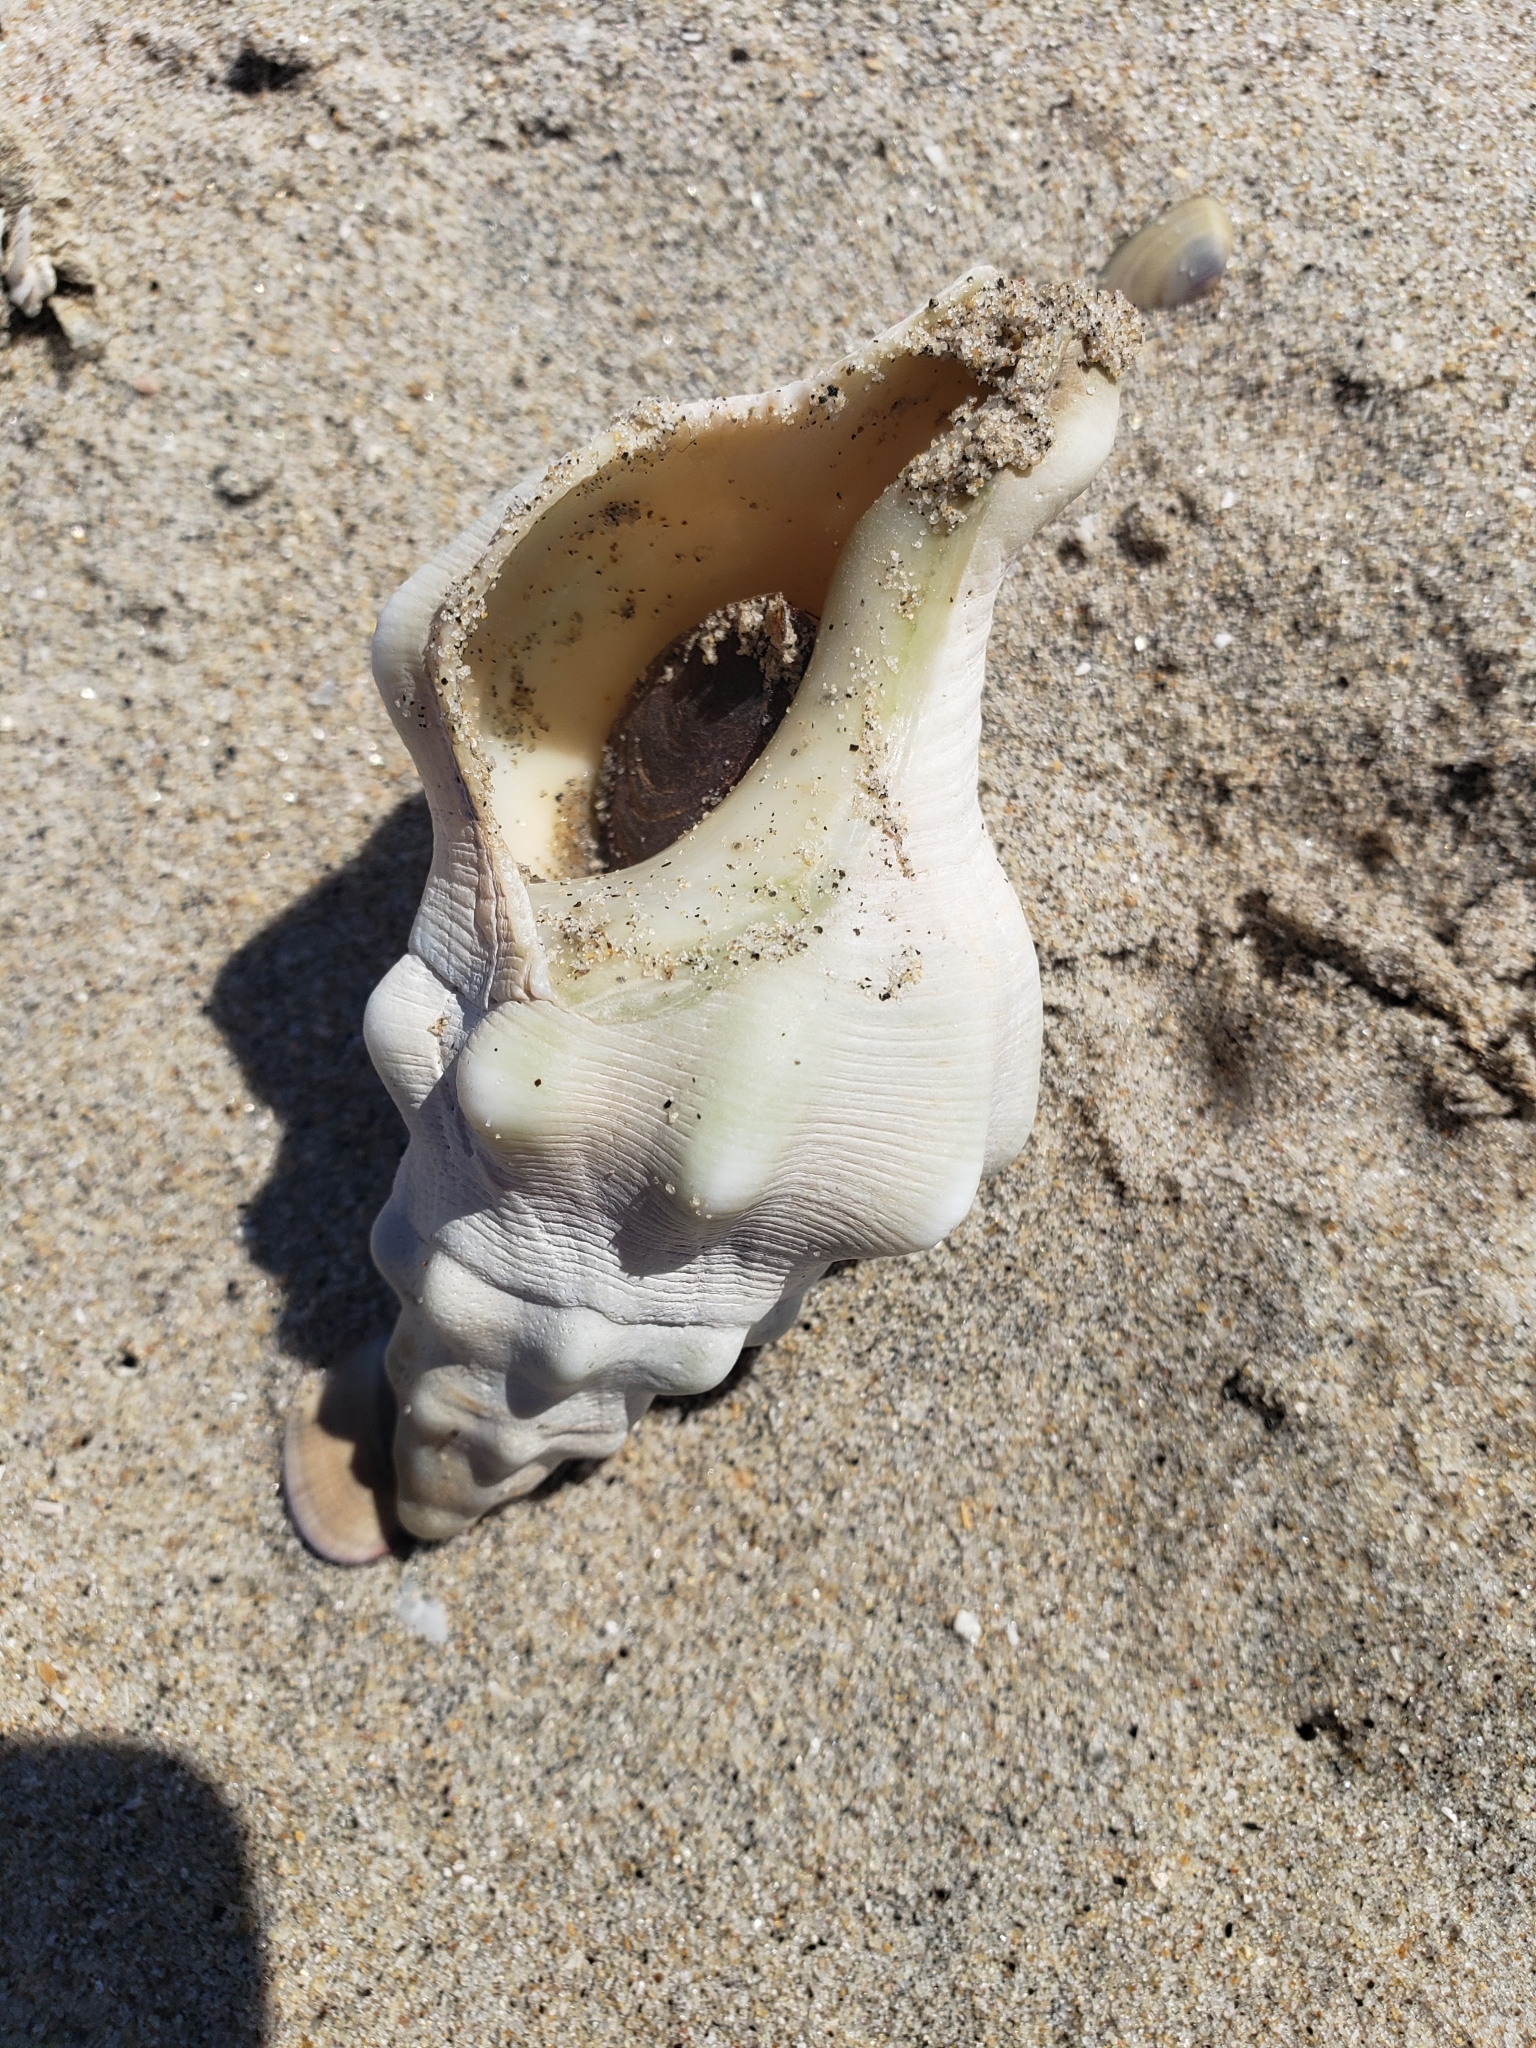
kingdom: Animalia
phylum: Mollusca
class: Gastropoda
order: Neogastropoda
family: Austrosiphonidae
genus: Kelletia
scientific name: Kelletia kelletii
